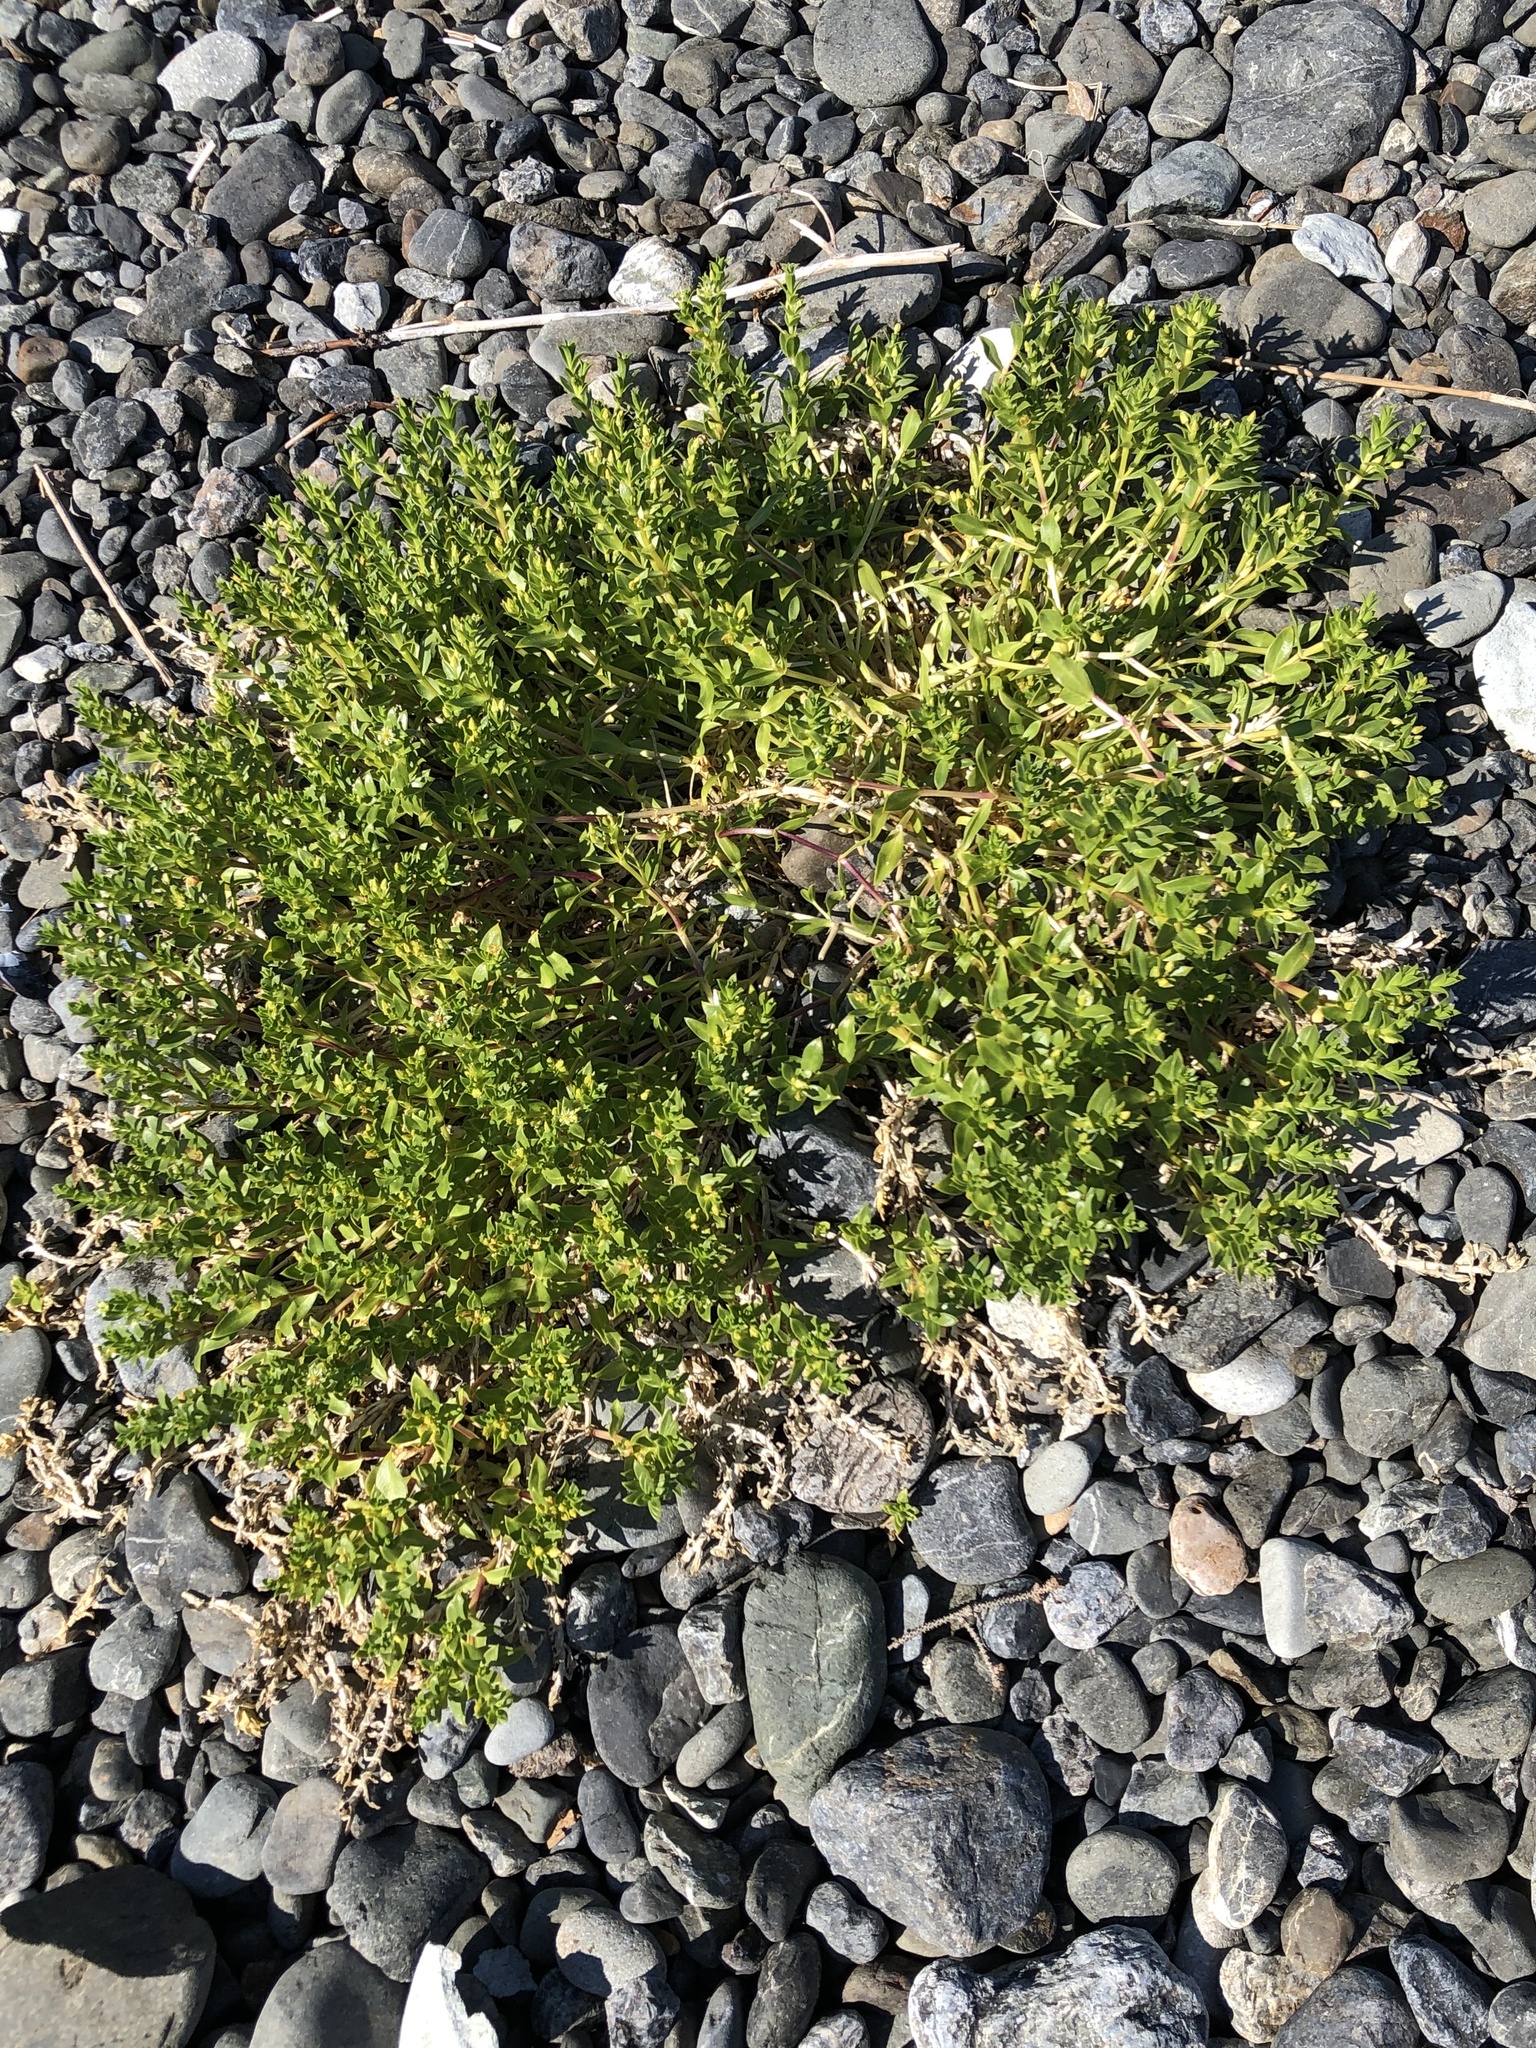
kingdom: Plantae
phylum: Tracheophyta
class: Magnoliopsida
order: Caryophyllales
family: Caryophyllaceae
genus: Honckenya
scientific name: Honckenya peploides
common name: Sea sandwort
